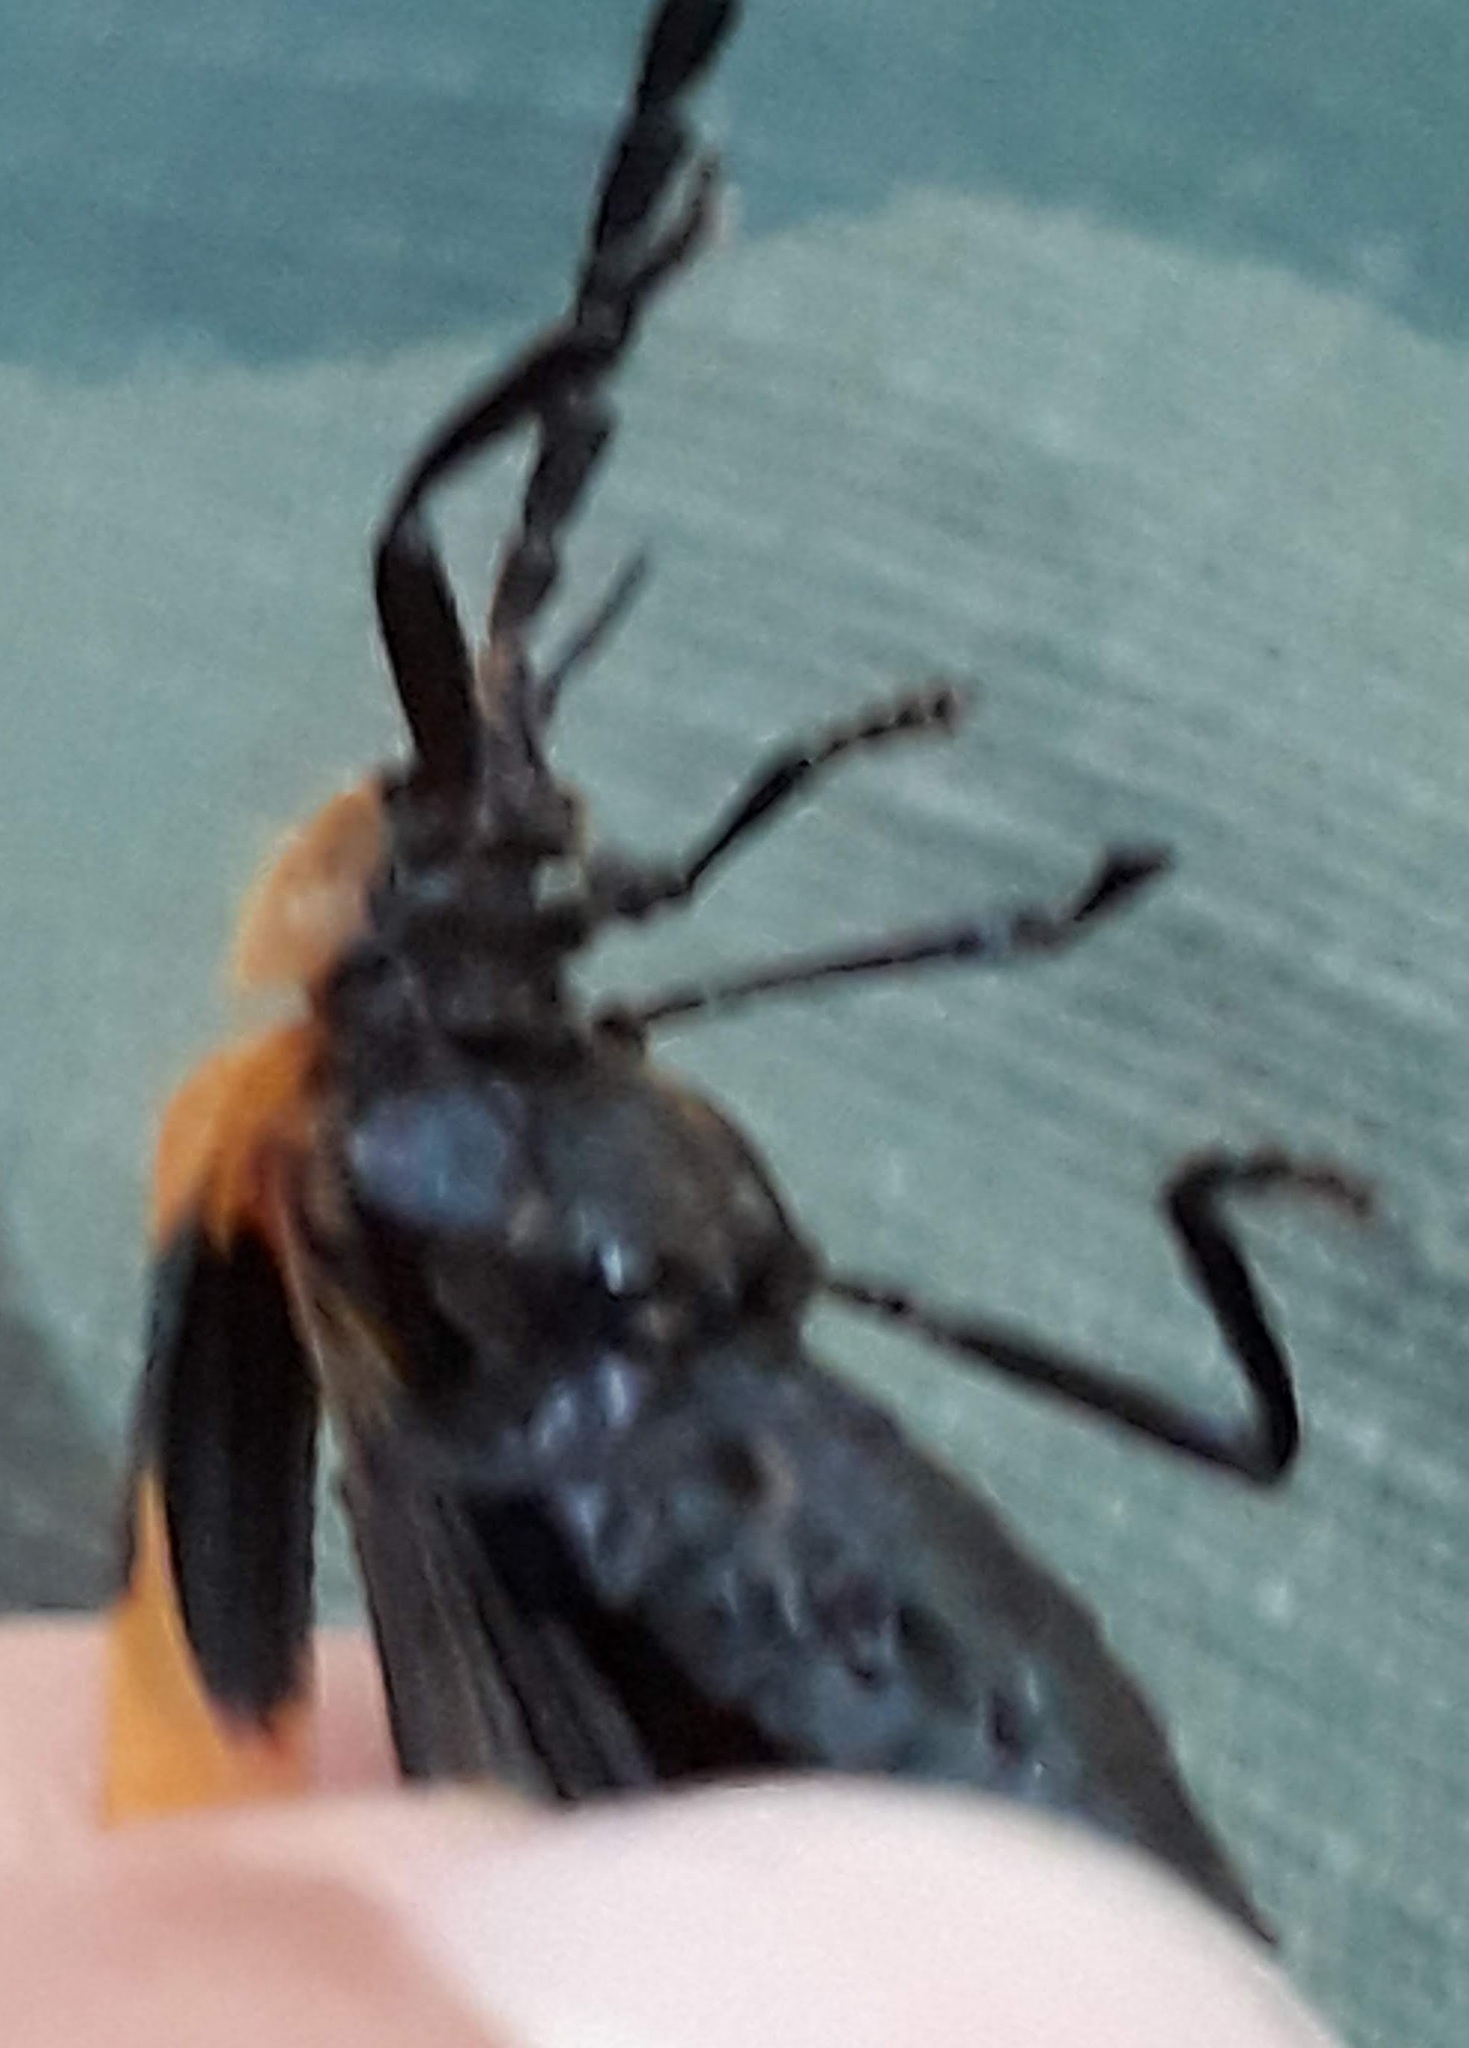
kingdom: Animalia
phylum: Arthropoda
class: Insecta
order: Coleoptera
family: Lycidae
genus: Calopteron
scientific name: Calopteron reticulatum
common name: Banded net-winged beetle
